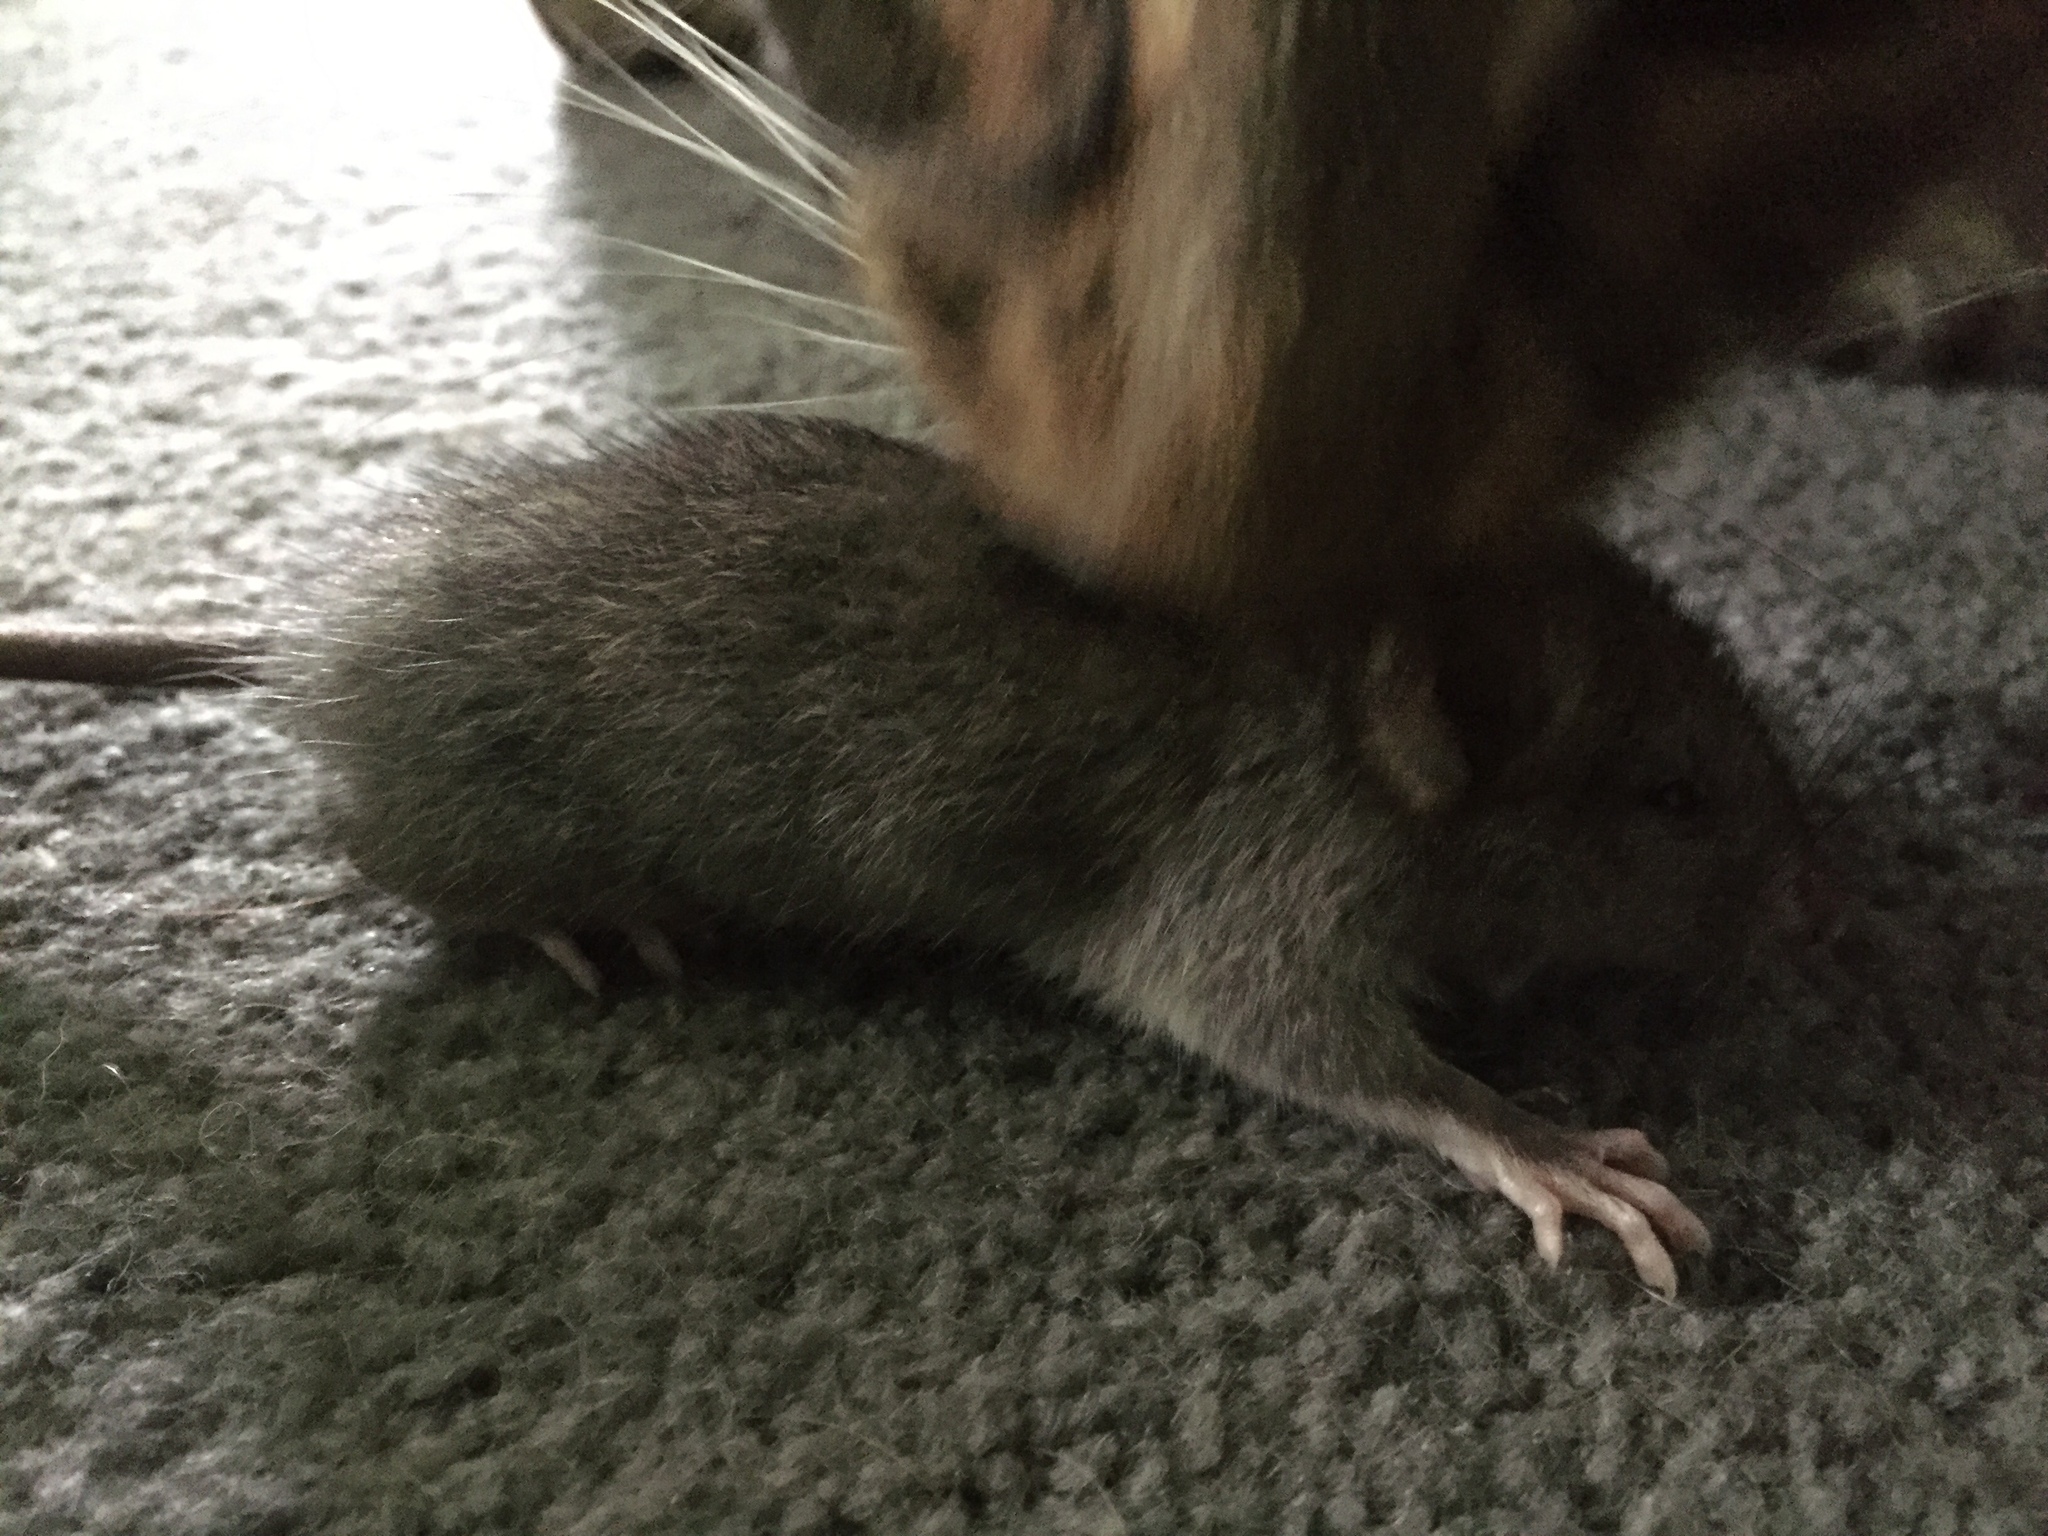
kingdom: Animalia
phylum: Chordata
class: Mammalia
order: Rodentia
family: Muridae
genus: Rattus
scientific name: Rattus rattus
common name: Black rat
